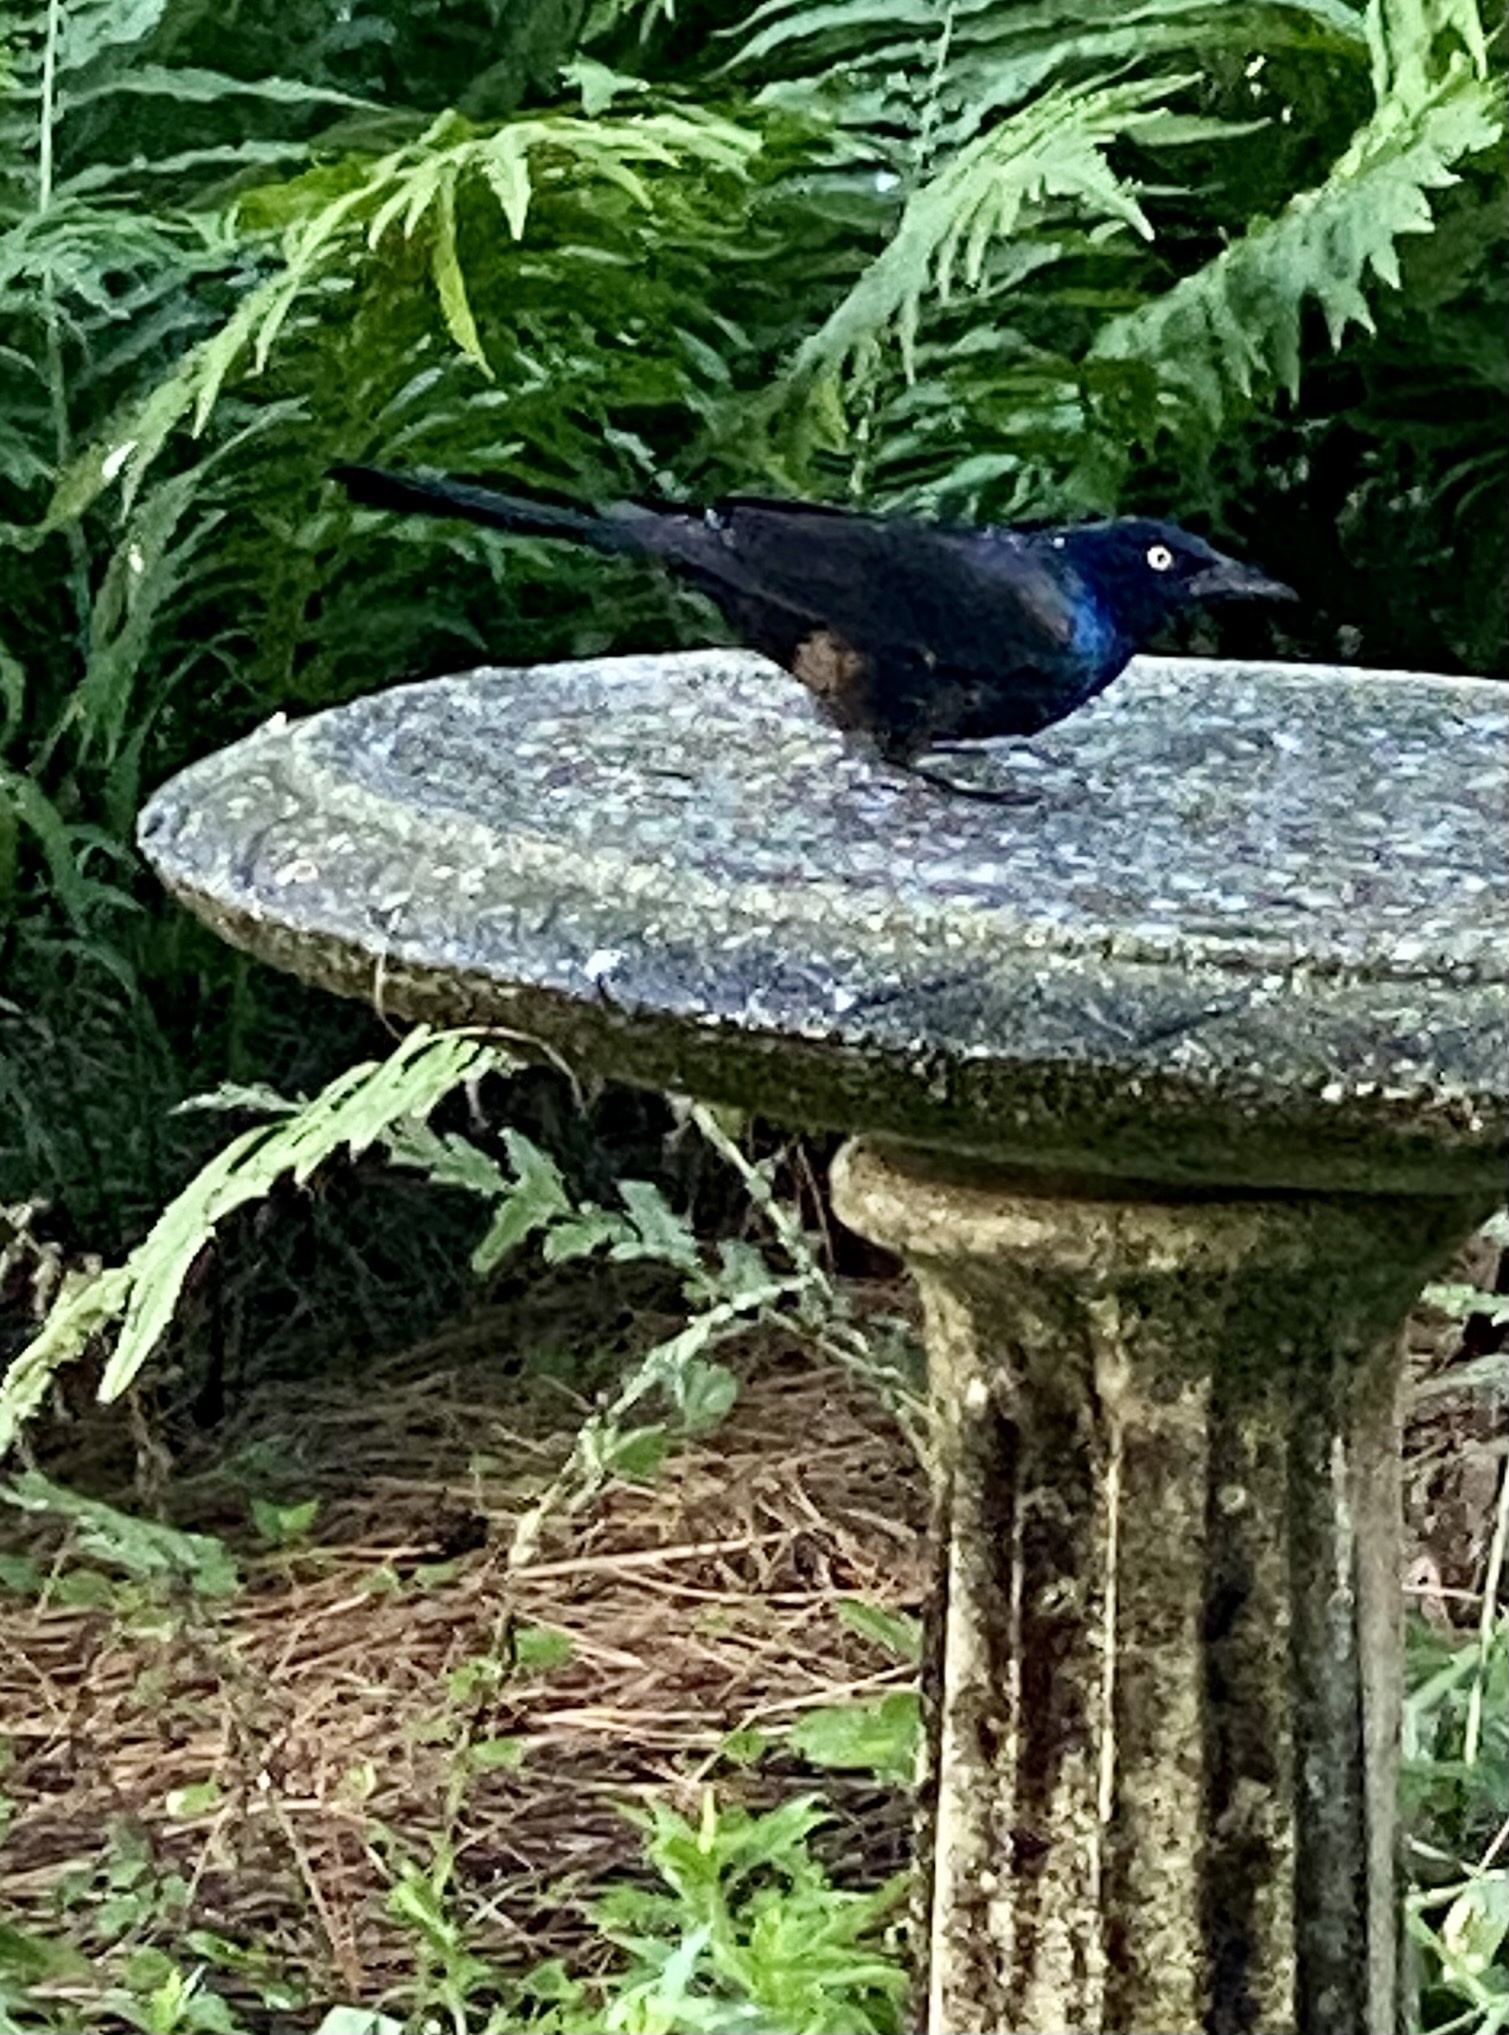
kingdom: Animalia
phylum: Chordata
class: Aves
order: Passeriformes
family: Icteridae
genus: Quiscalus
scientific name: Quiscalus quiscula
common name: Common grackle
